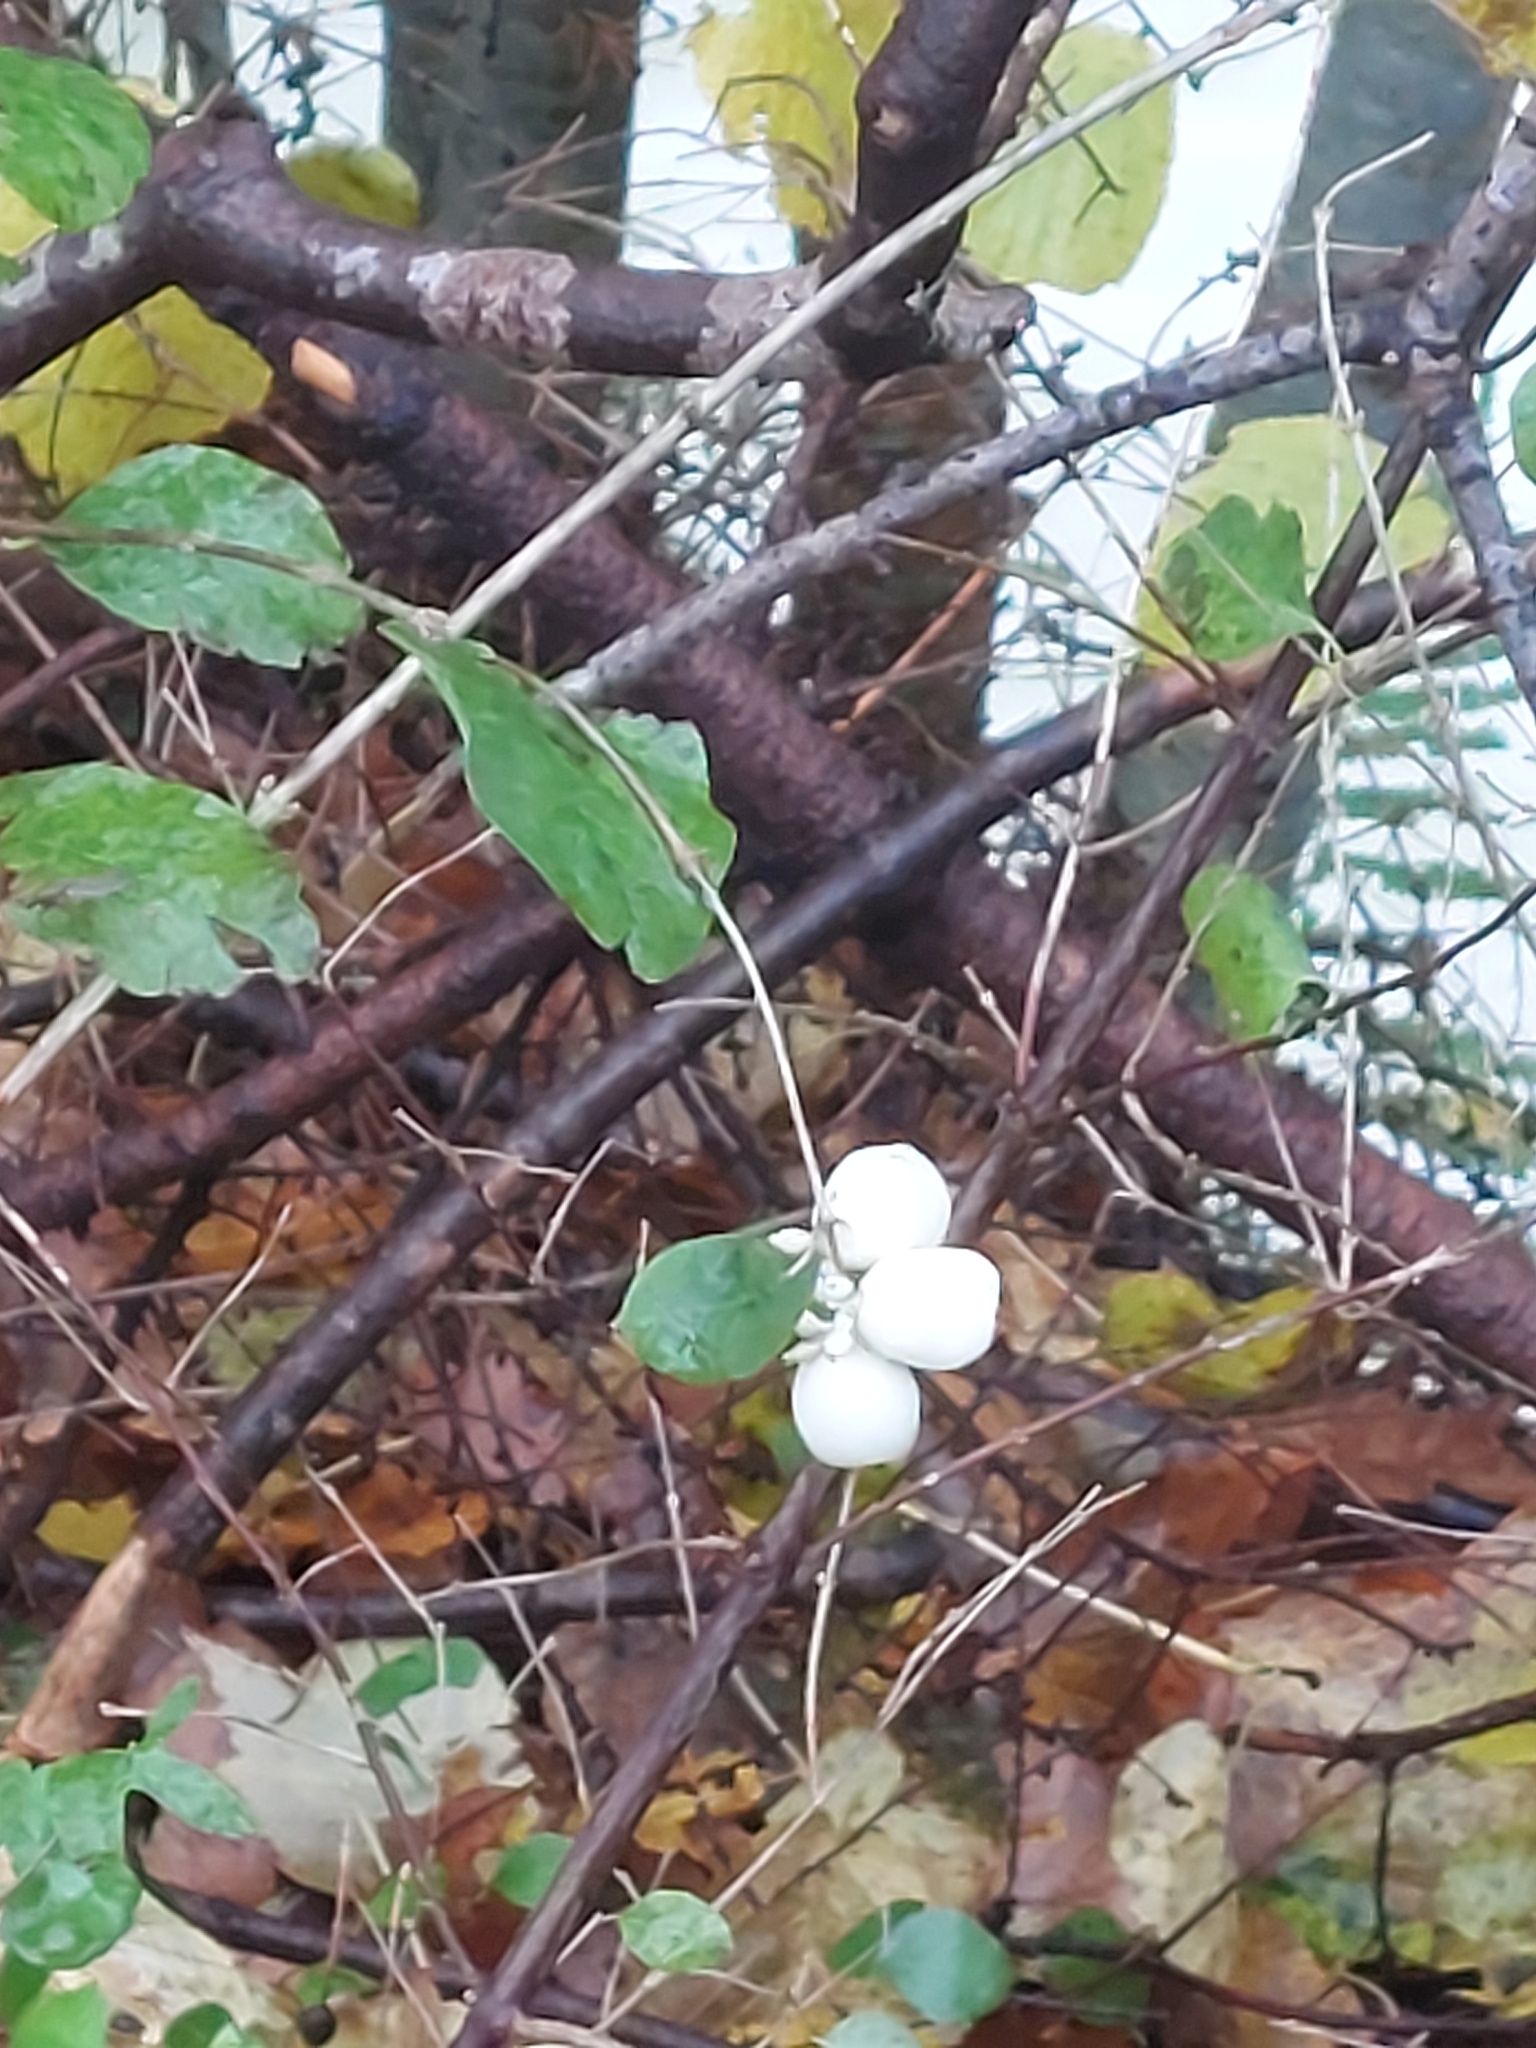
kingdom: Plantae
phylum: Tracheophyta
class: Magnoliopsida
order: Dipsacales
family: Caprifoliaceae
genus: Symphoricarpos
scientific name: Symphoricarpos albus
